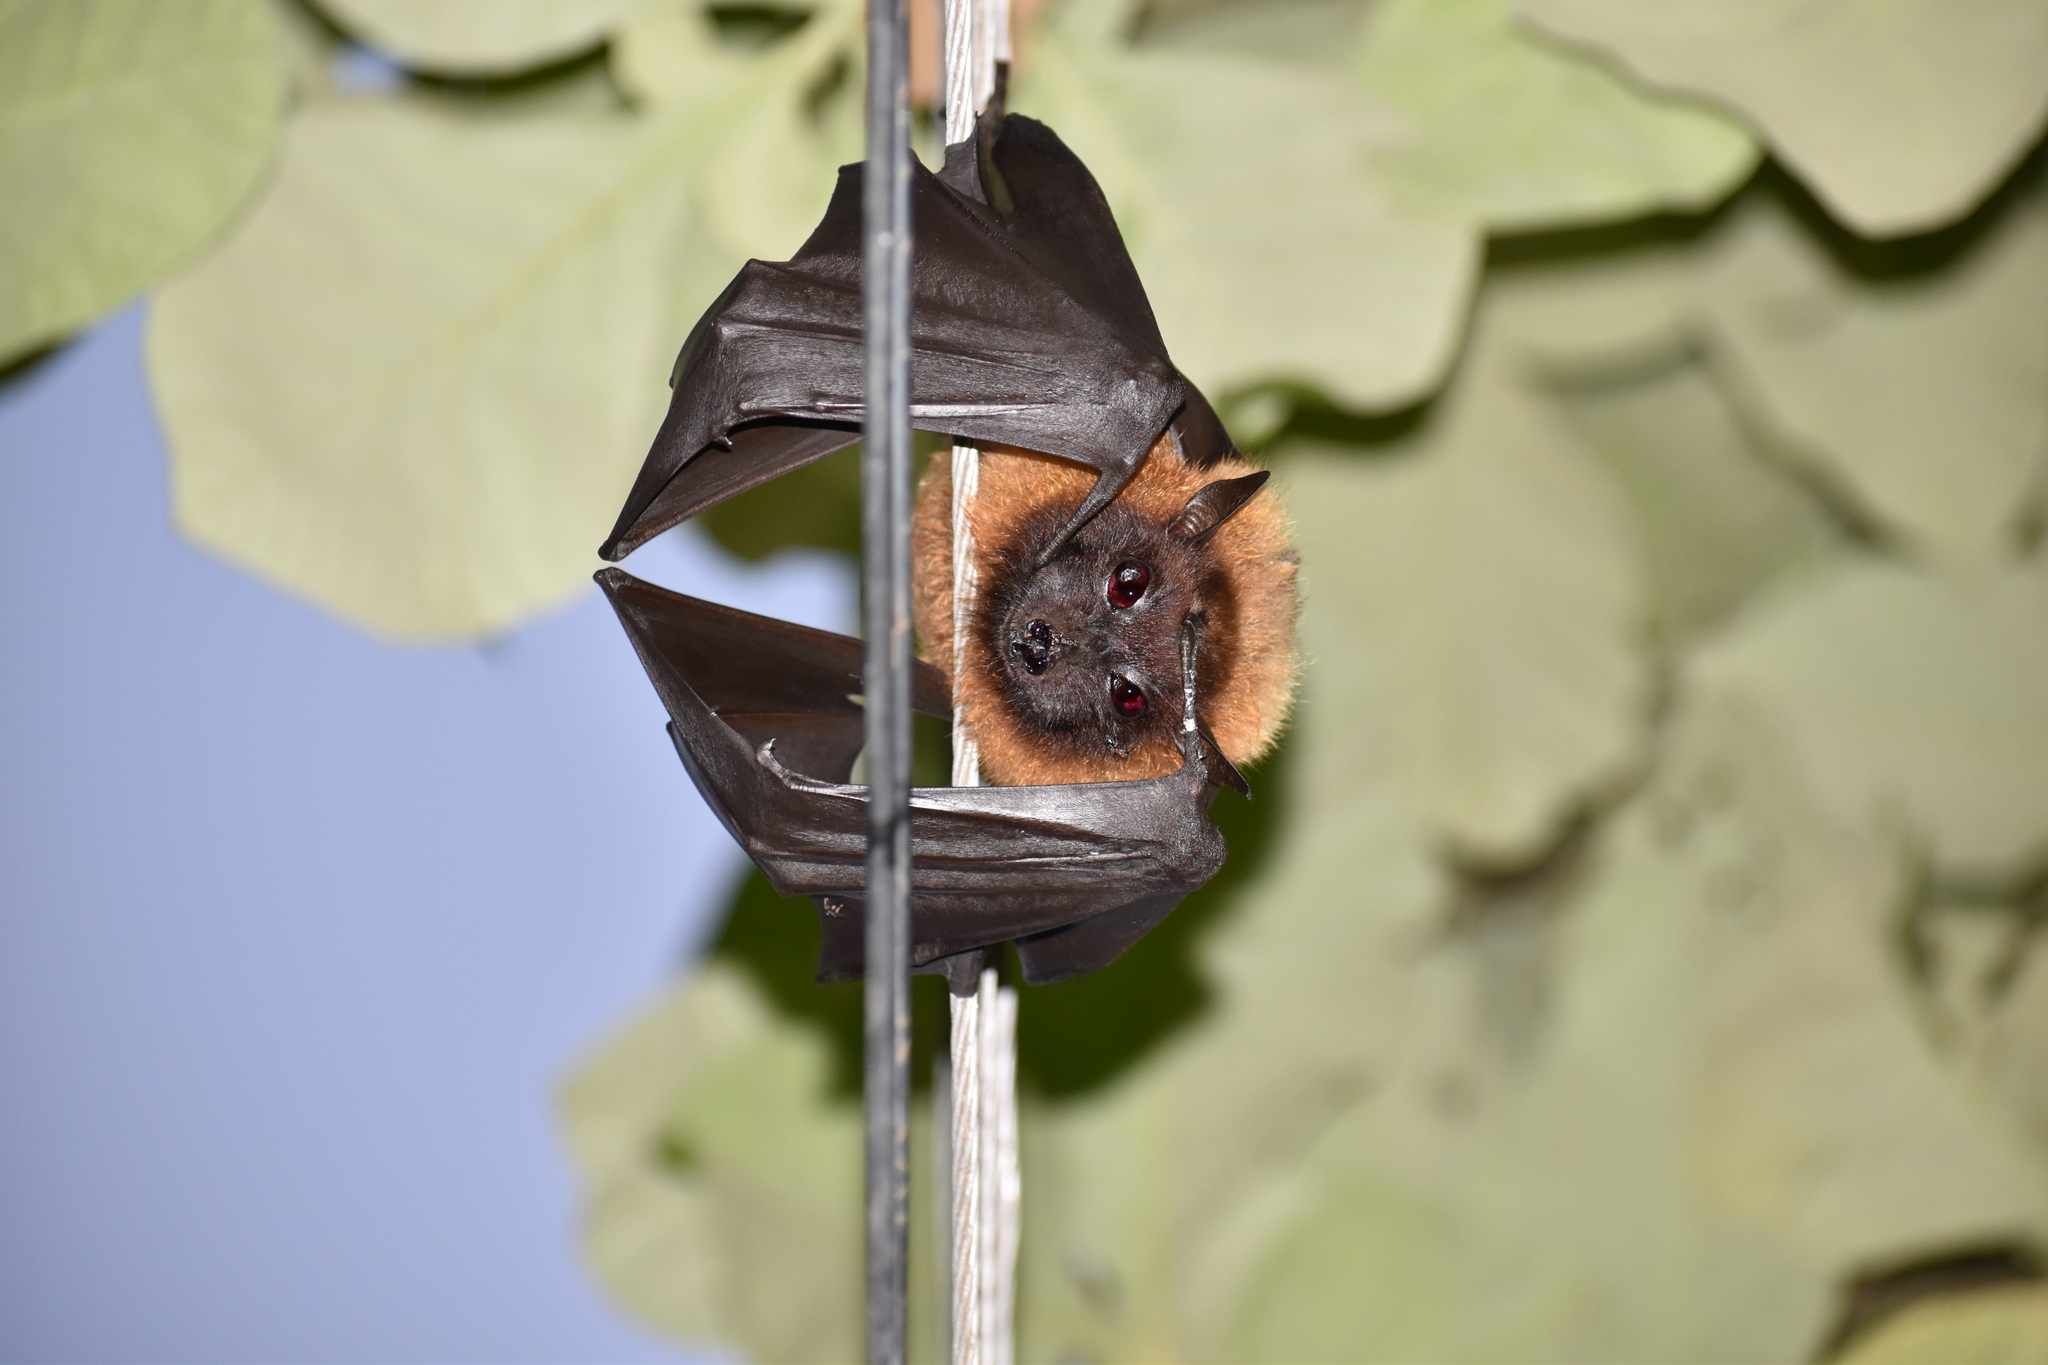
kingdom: Animalia
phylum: Chordata
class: Mammalia
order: Chiroptera
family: Pteropodidae
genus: Pteropus
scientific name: Pteropus vampyrus
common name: Large flying fox
